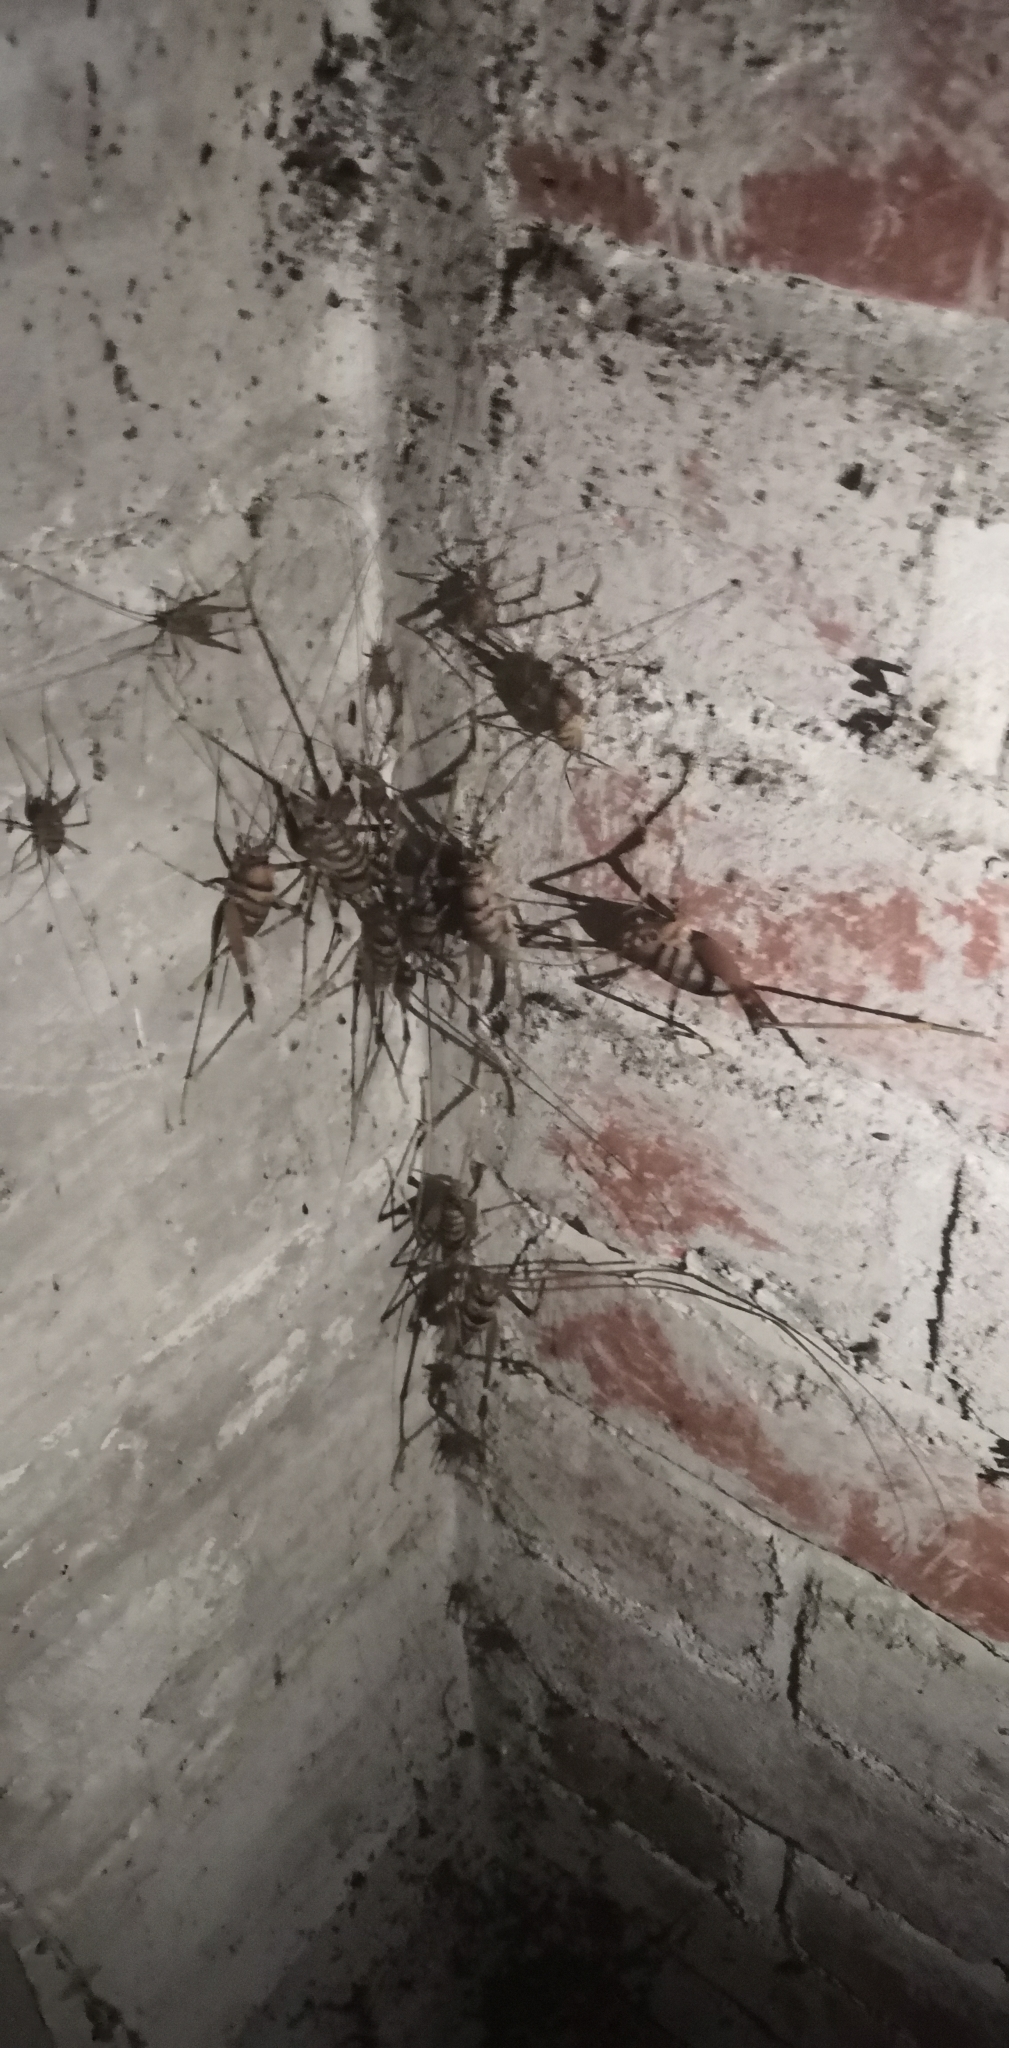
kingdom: Animalia
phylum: Arthropoda
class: Insecta
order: Orthoptera
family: Rhaphidophoridae
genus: Pachyrhamma
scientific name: Pachyrhamma edwardsii
